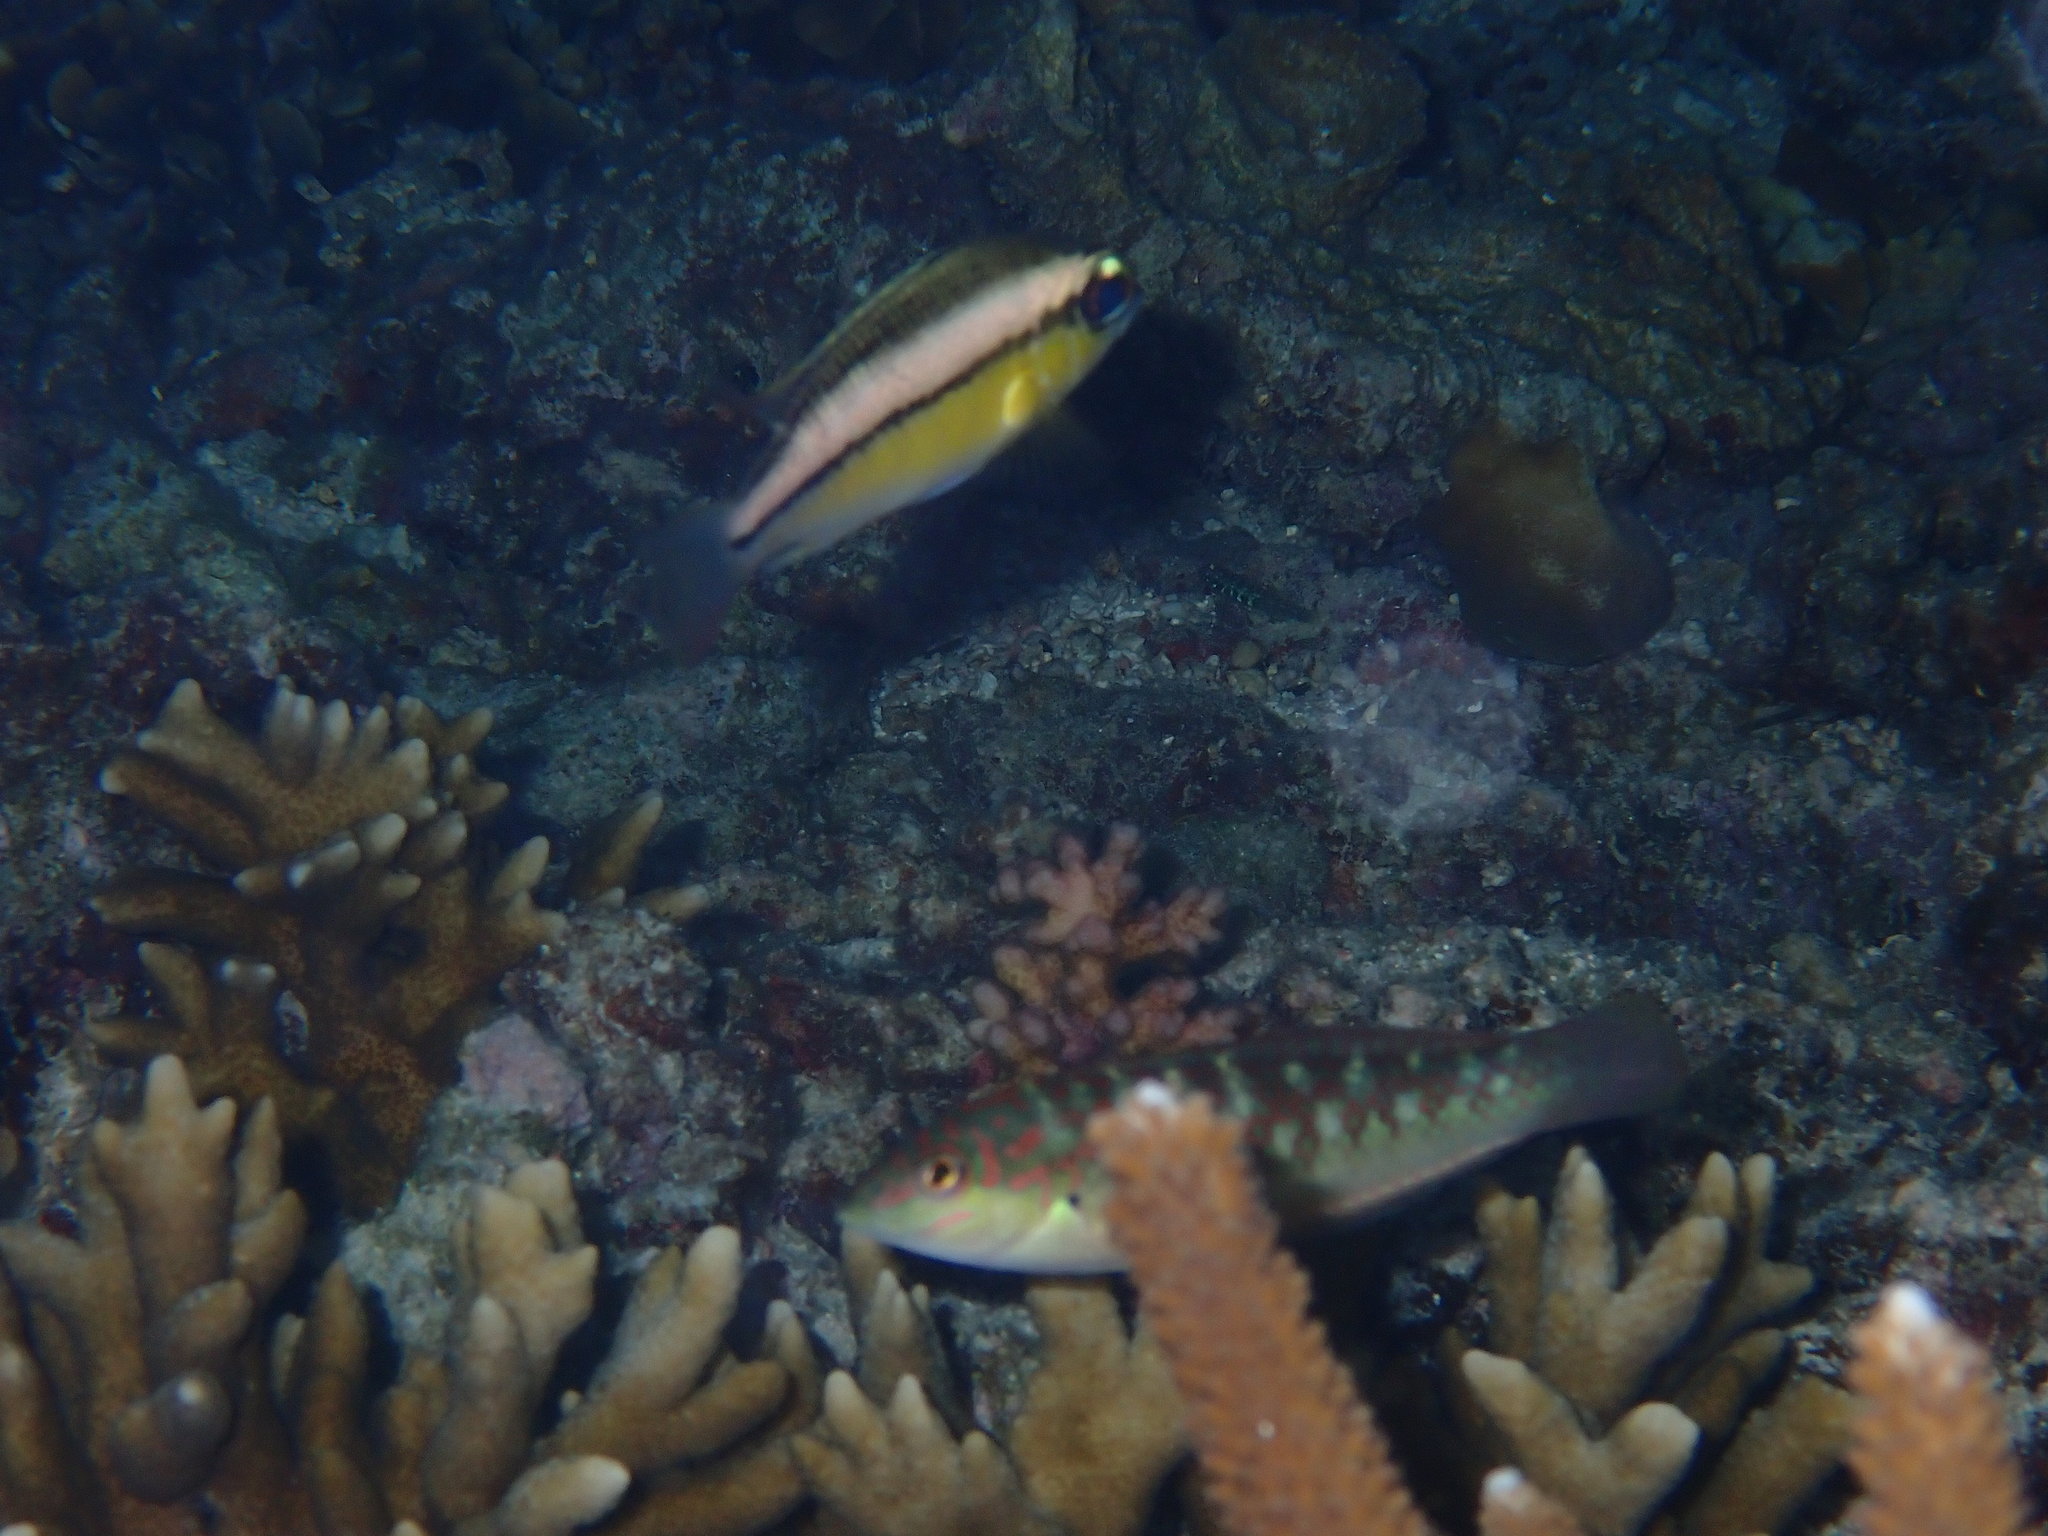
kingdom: Animalia
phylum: Chordata
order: Perciformes
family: Nemipteridae
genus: Scolopsis
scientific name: Scolopsis margaritifera
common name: Pearly monocle bream
